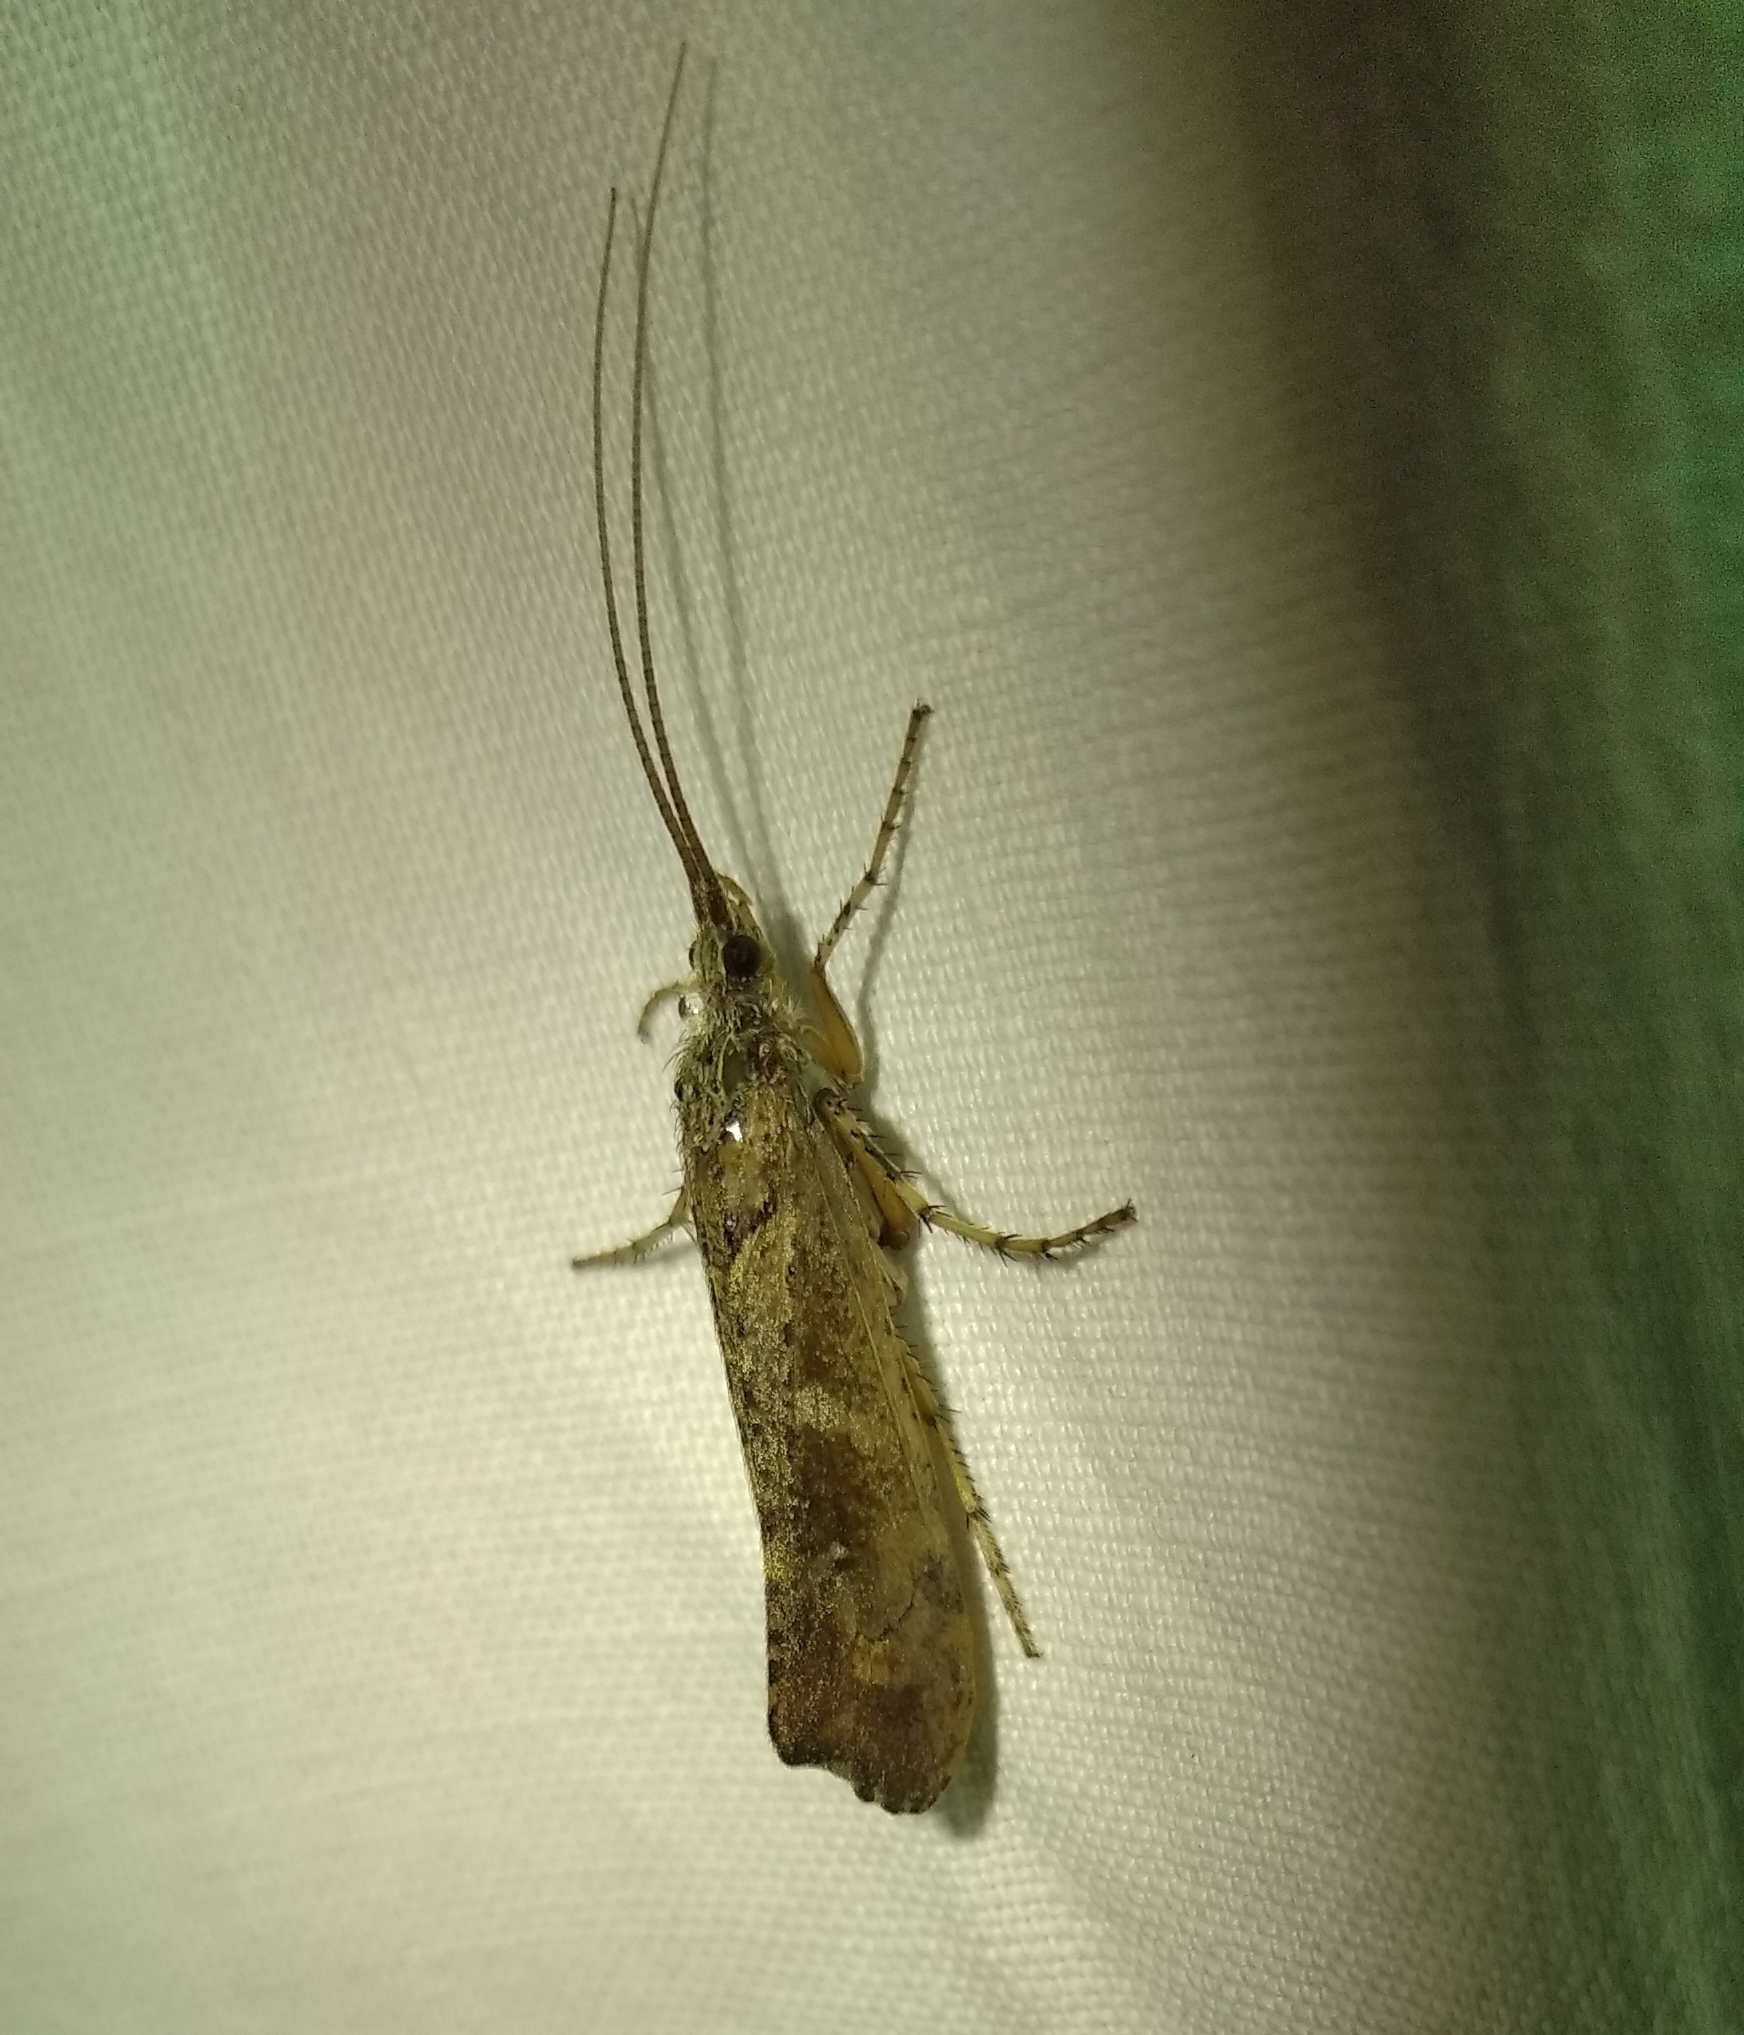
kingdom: Animalia
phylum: Arthropoda
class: Insecta
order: Trichoptera
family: Limnephilidae
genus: Glyphotaelius
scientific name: Glyphotaelius pellucidus
